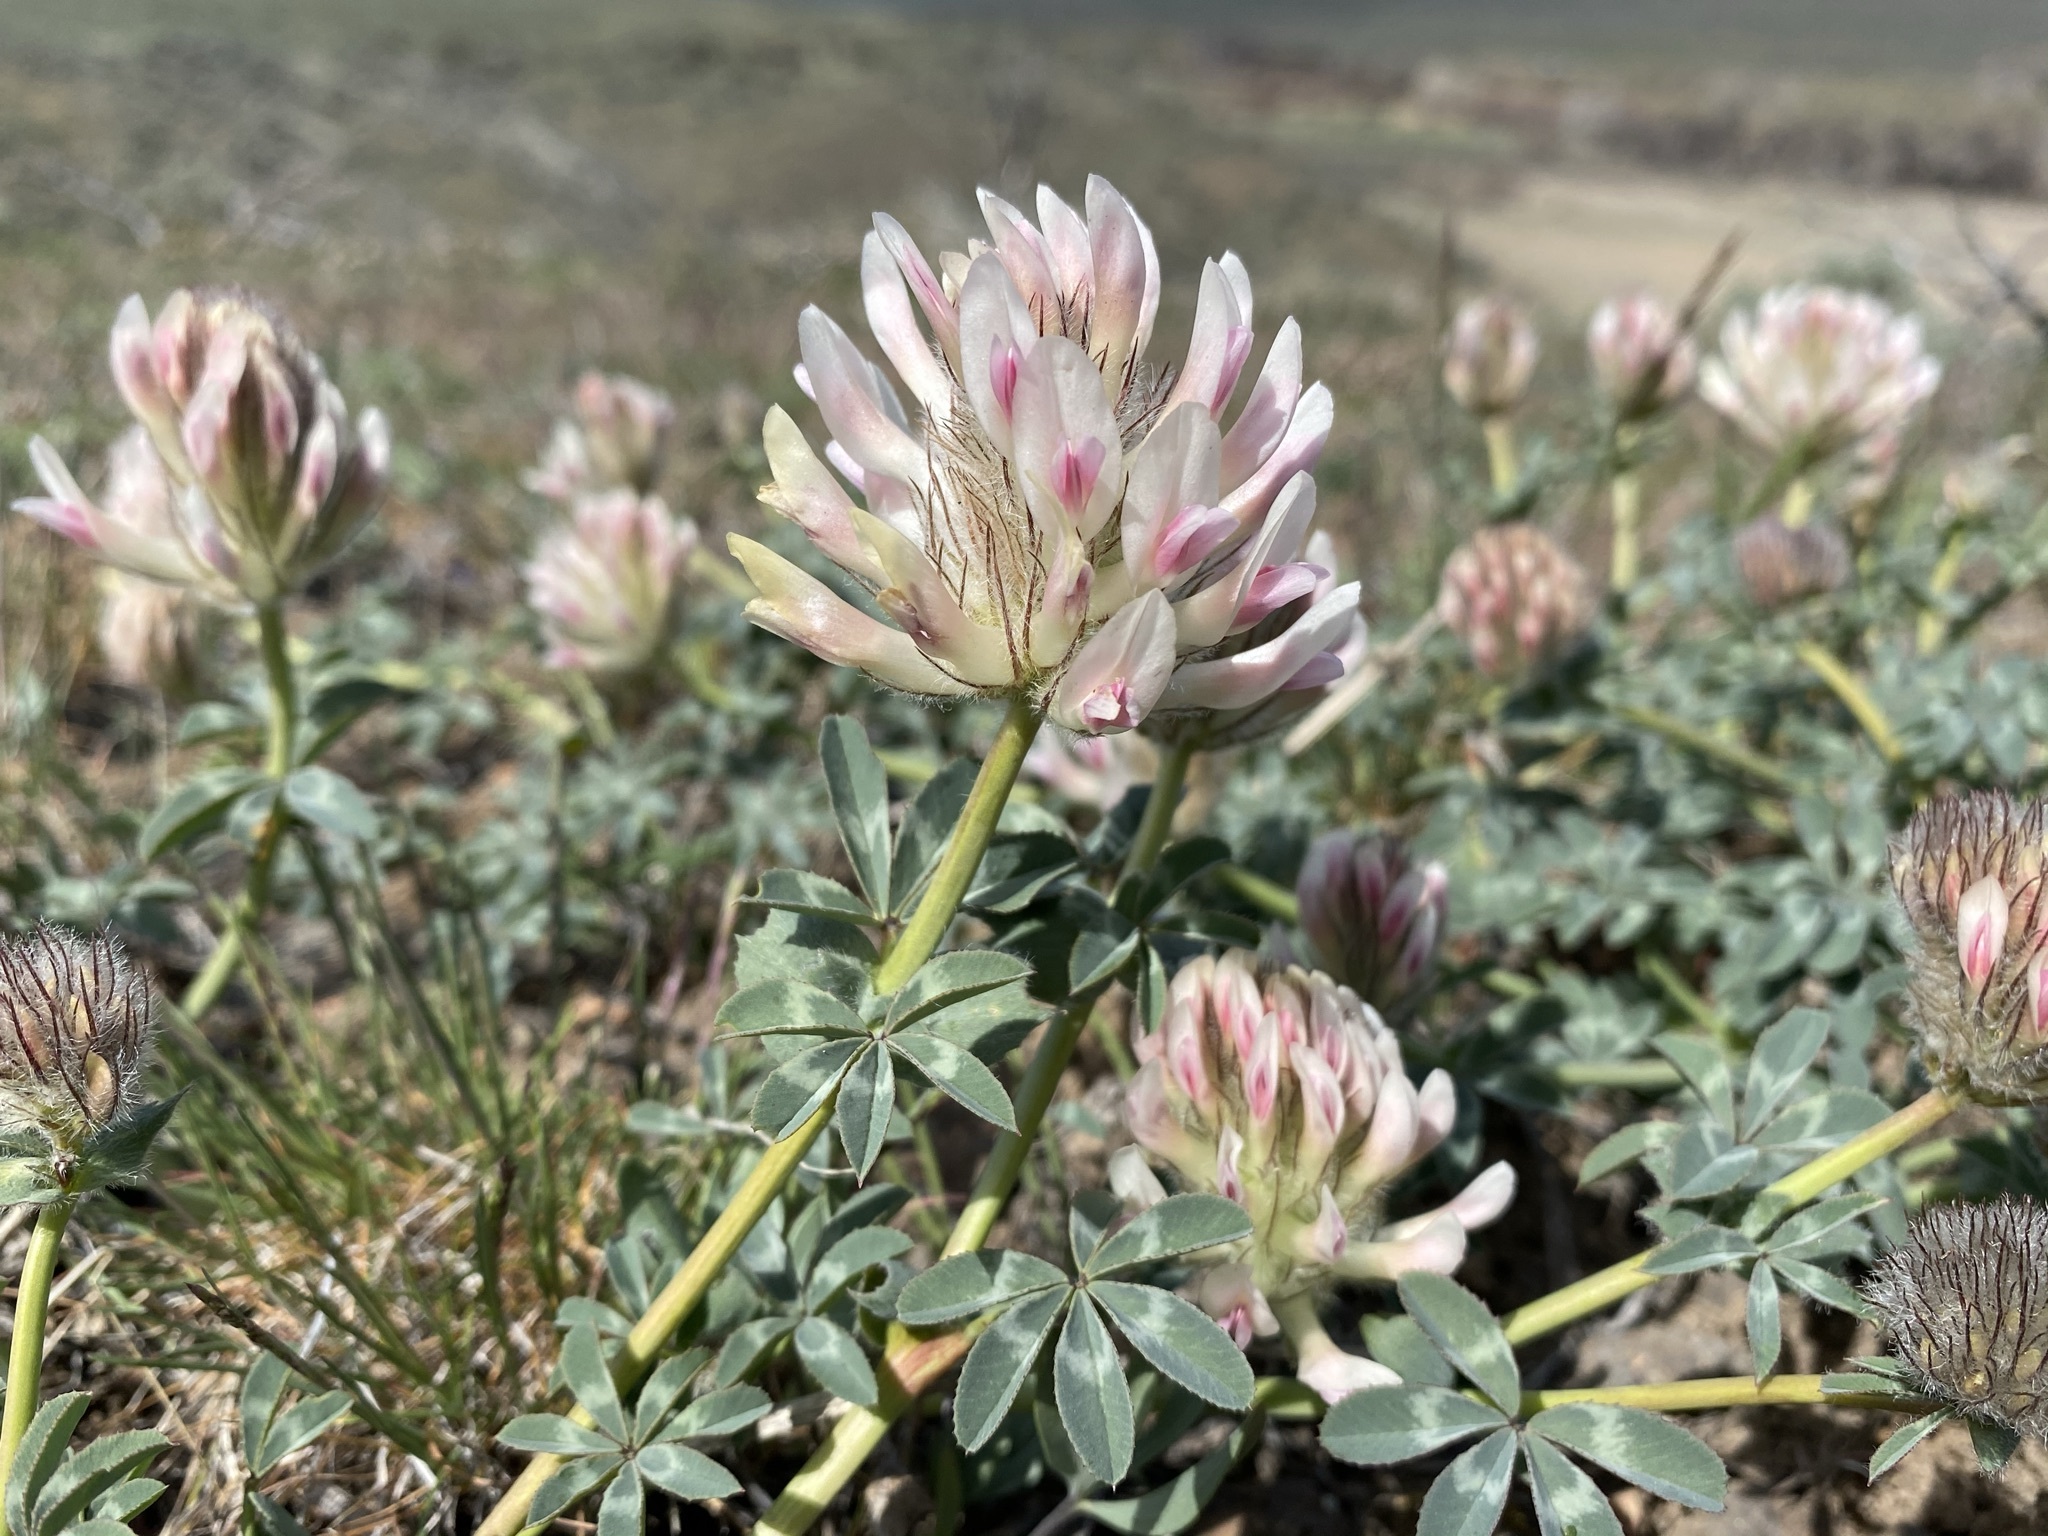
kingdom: Plantae
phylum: Tracheophyta
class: Magnoliopsida
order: Fabales
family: Fabaceae
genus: Trifolium
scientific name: Trifolium macrocephalum
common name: Large-head clover
